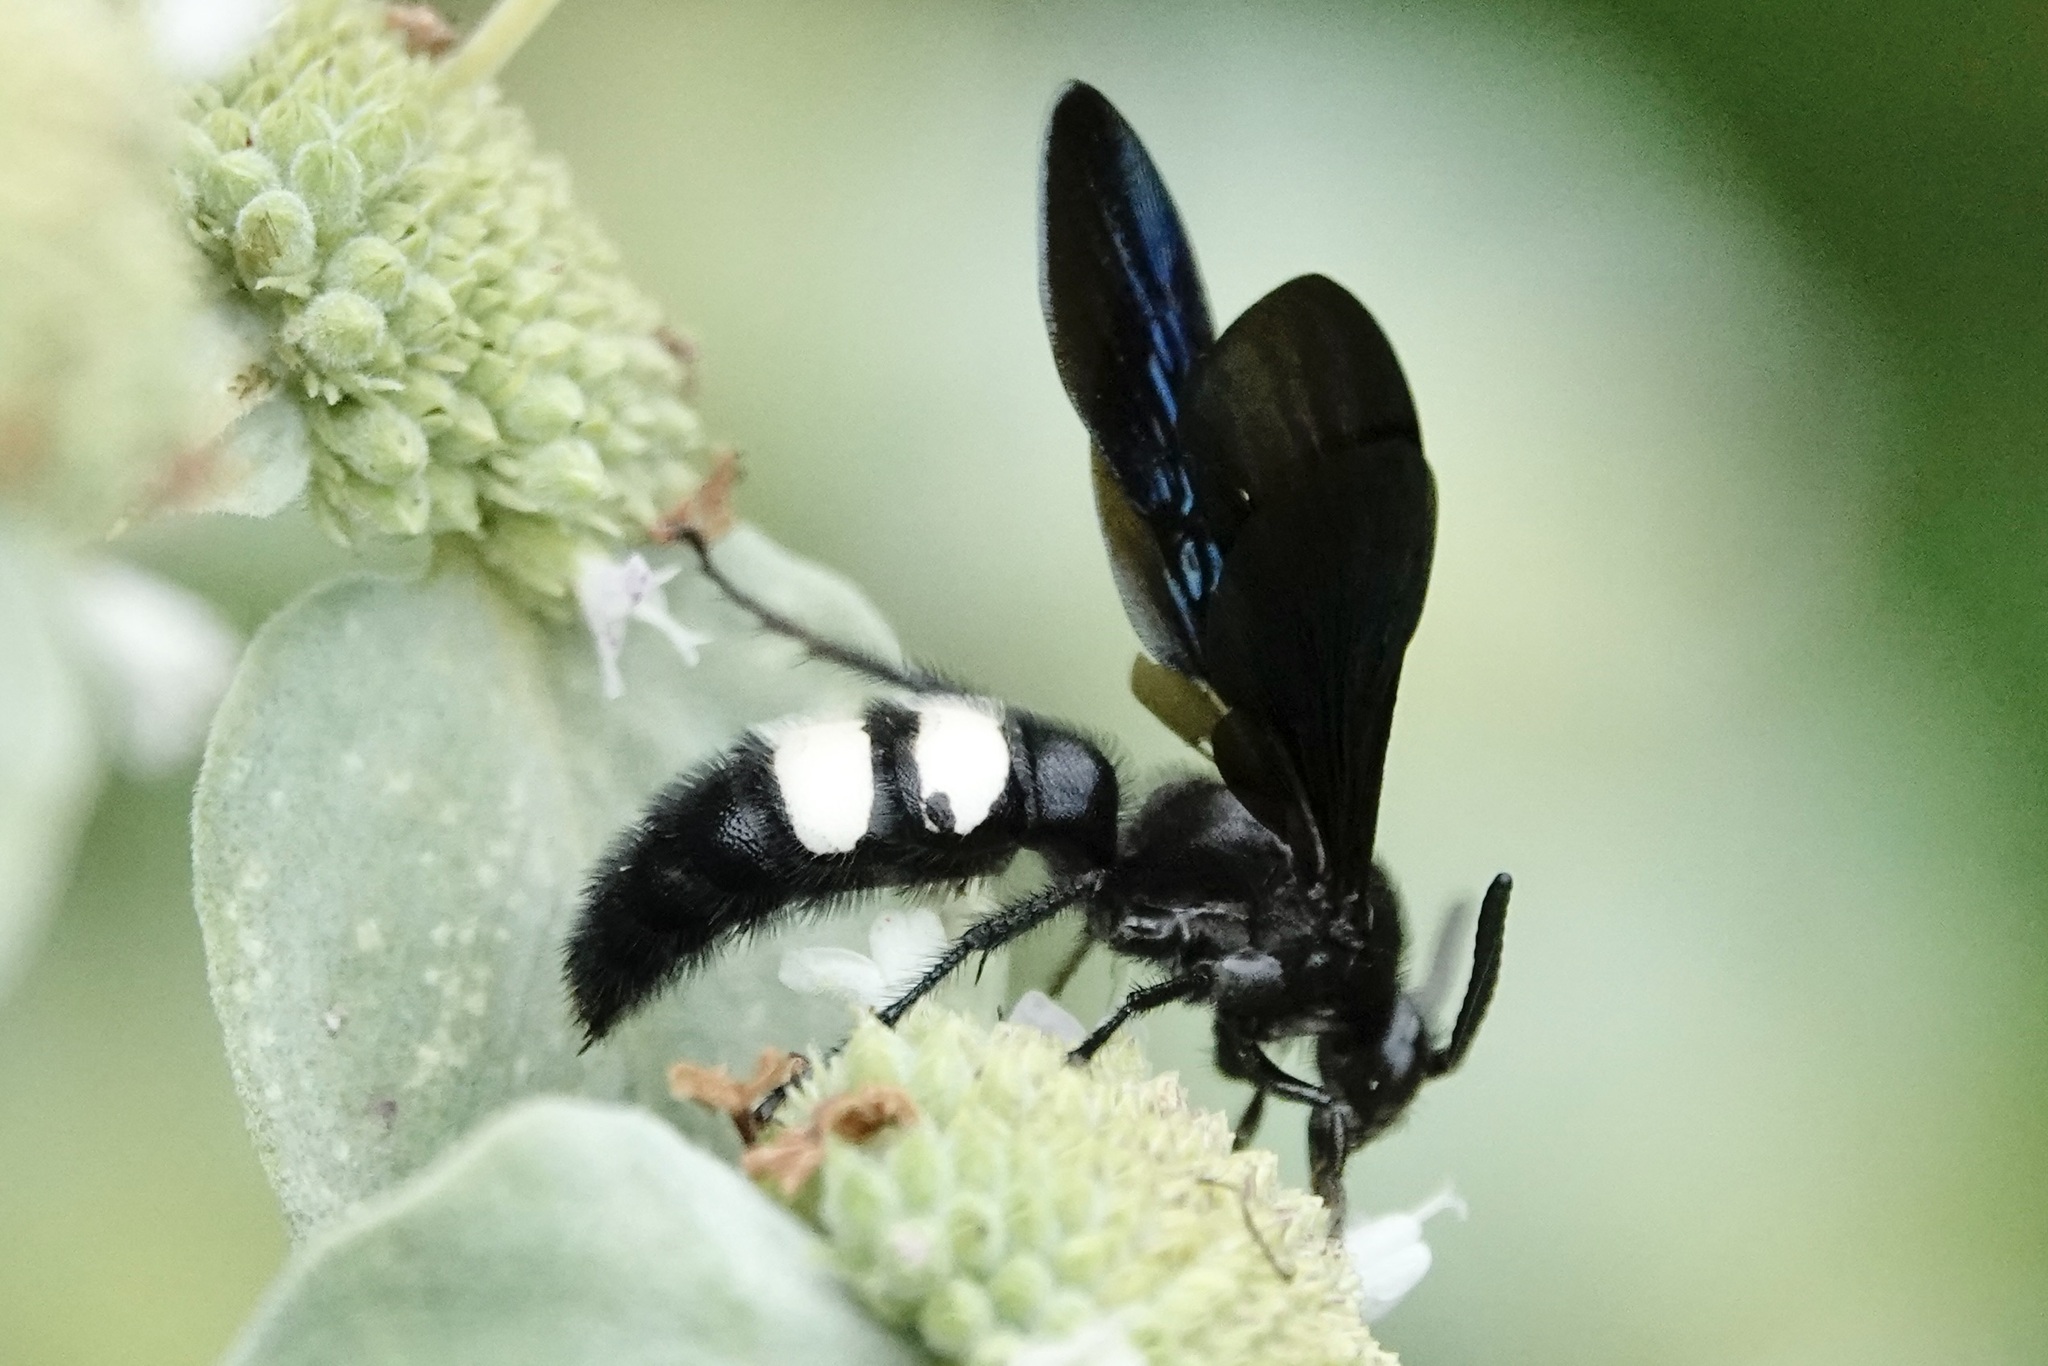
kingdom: Animalia
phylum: Arthropoda
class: Insecta
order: Hymenoptera
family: Scoliidae
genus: Scolia
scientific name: Scolia bicincta
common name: Double-banded scoliid wasp
